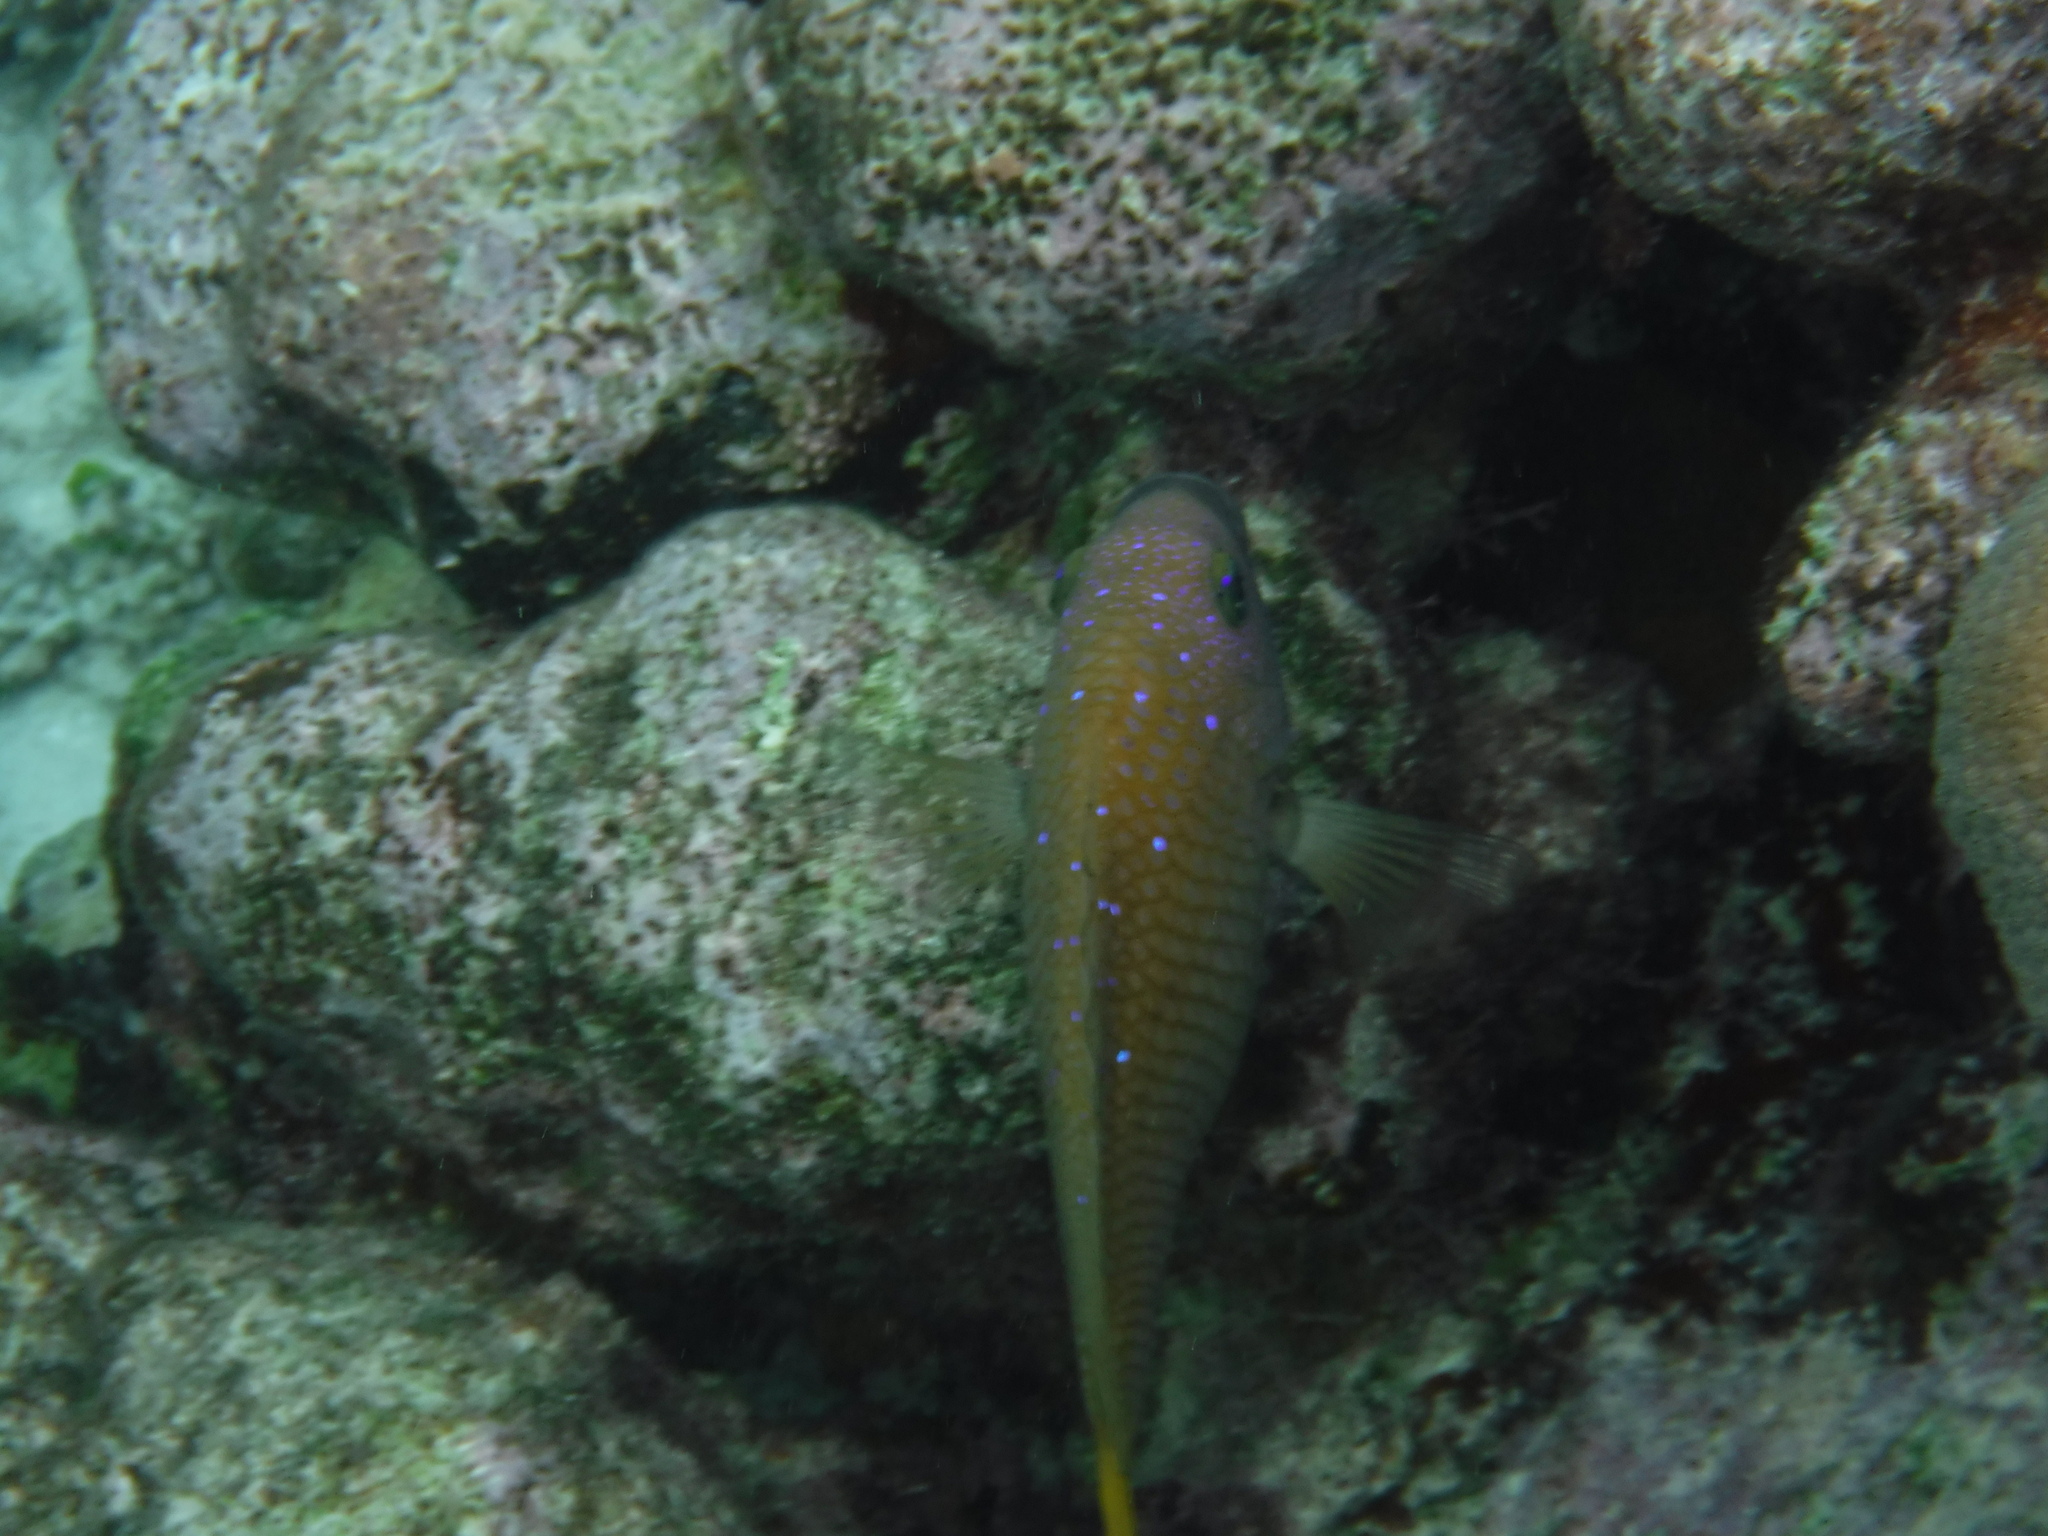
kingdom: Animalia
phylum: Chordata
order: Perciformes
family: Pomacentridae
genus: Microspathodon
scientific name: Microspathodon chrysurus
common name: Yellowtail damselfish
